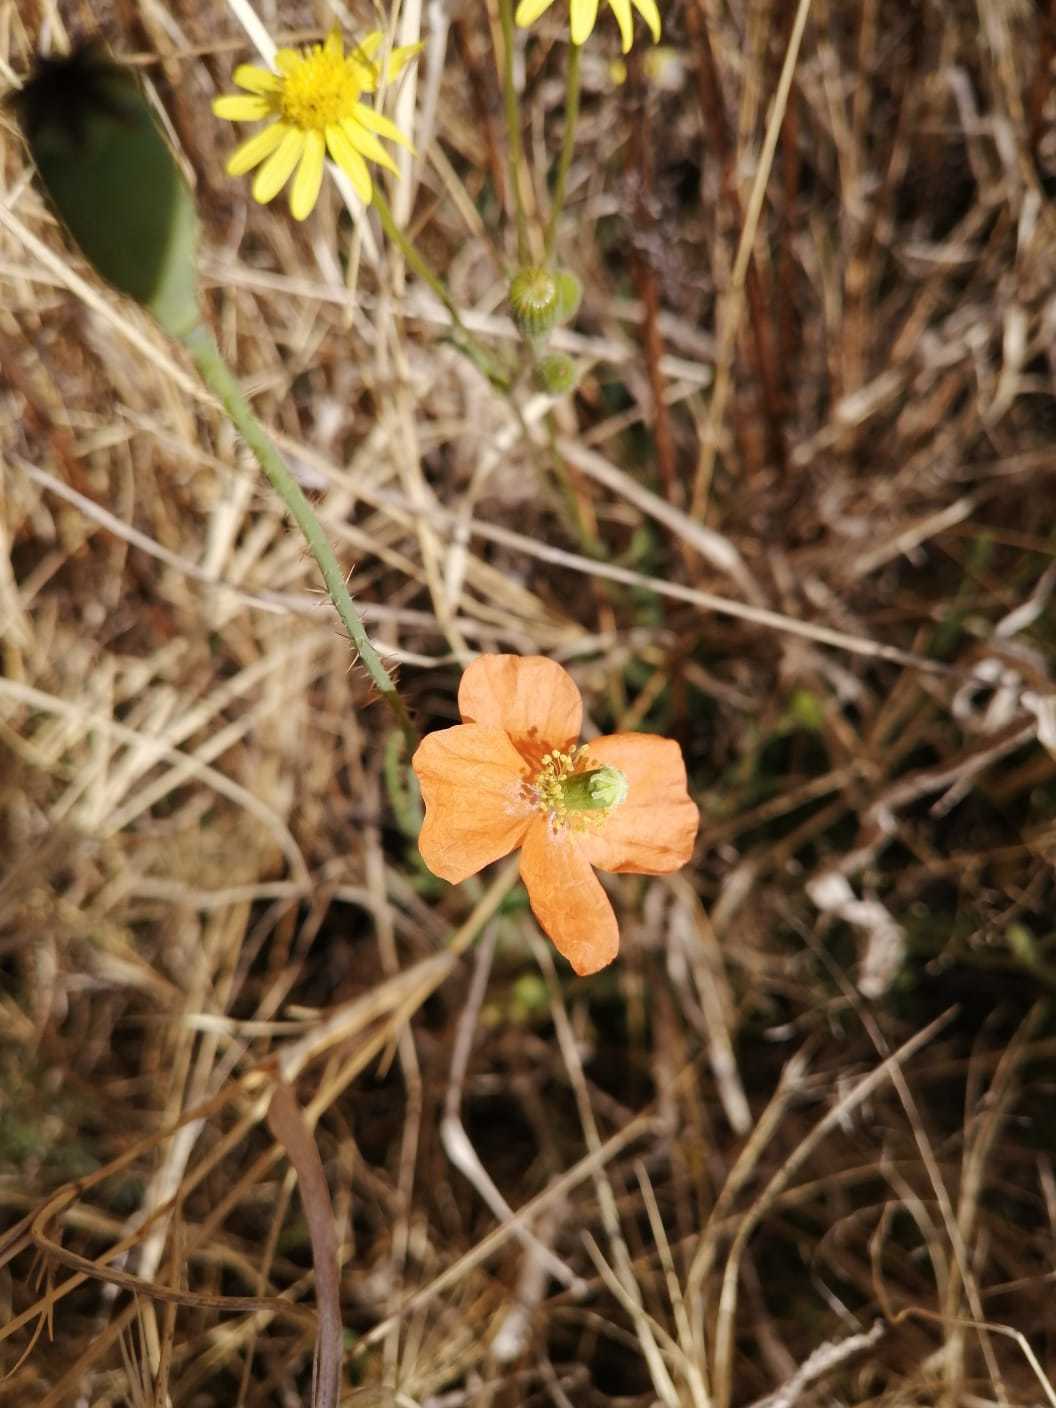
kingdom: Plantae
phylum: Tracheophyta
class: Magnoliopsida
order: Ranunculales
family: Papaveraceae
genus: Papaver
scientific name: Papaver aculeatum
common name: Bristle poppy
